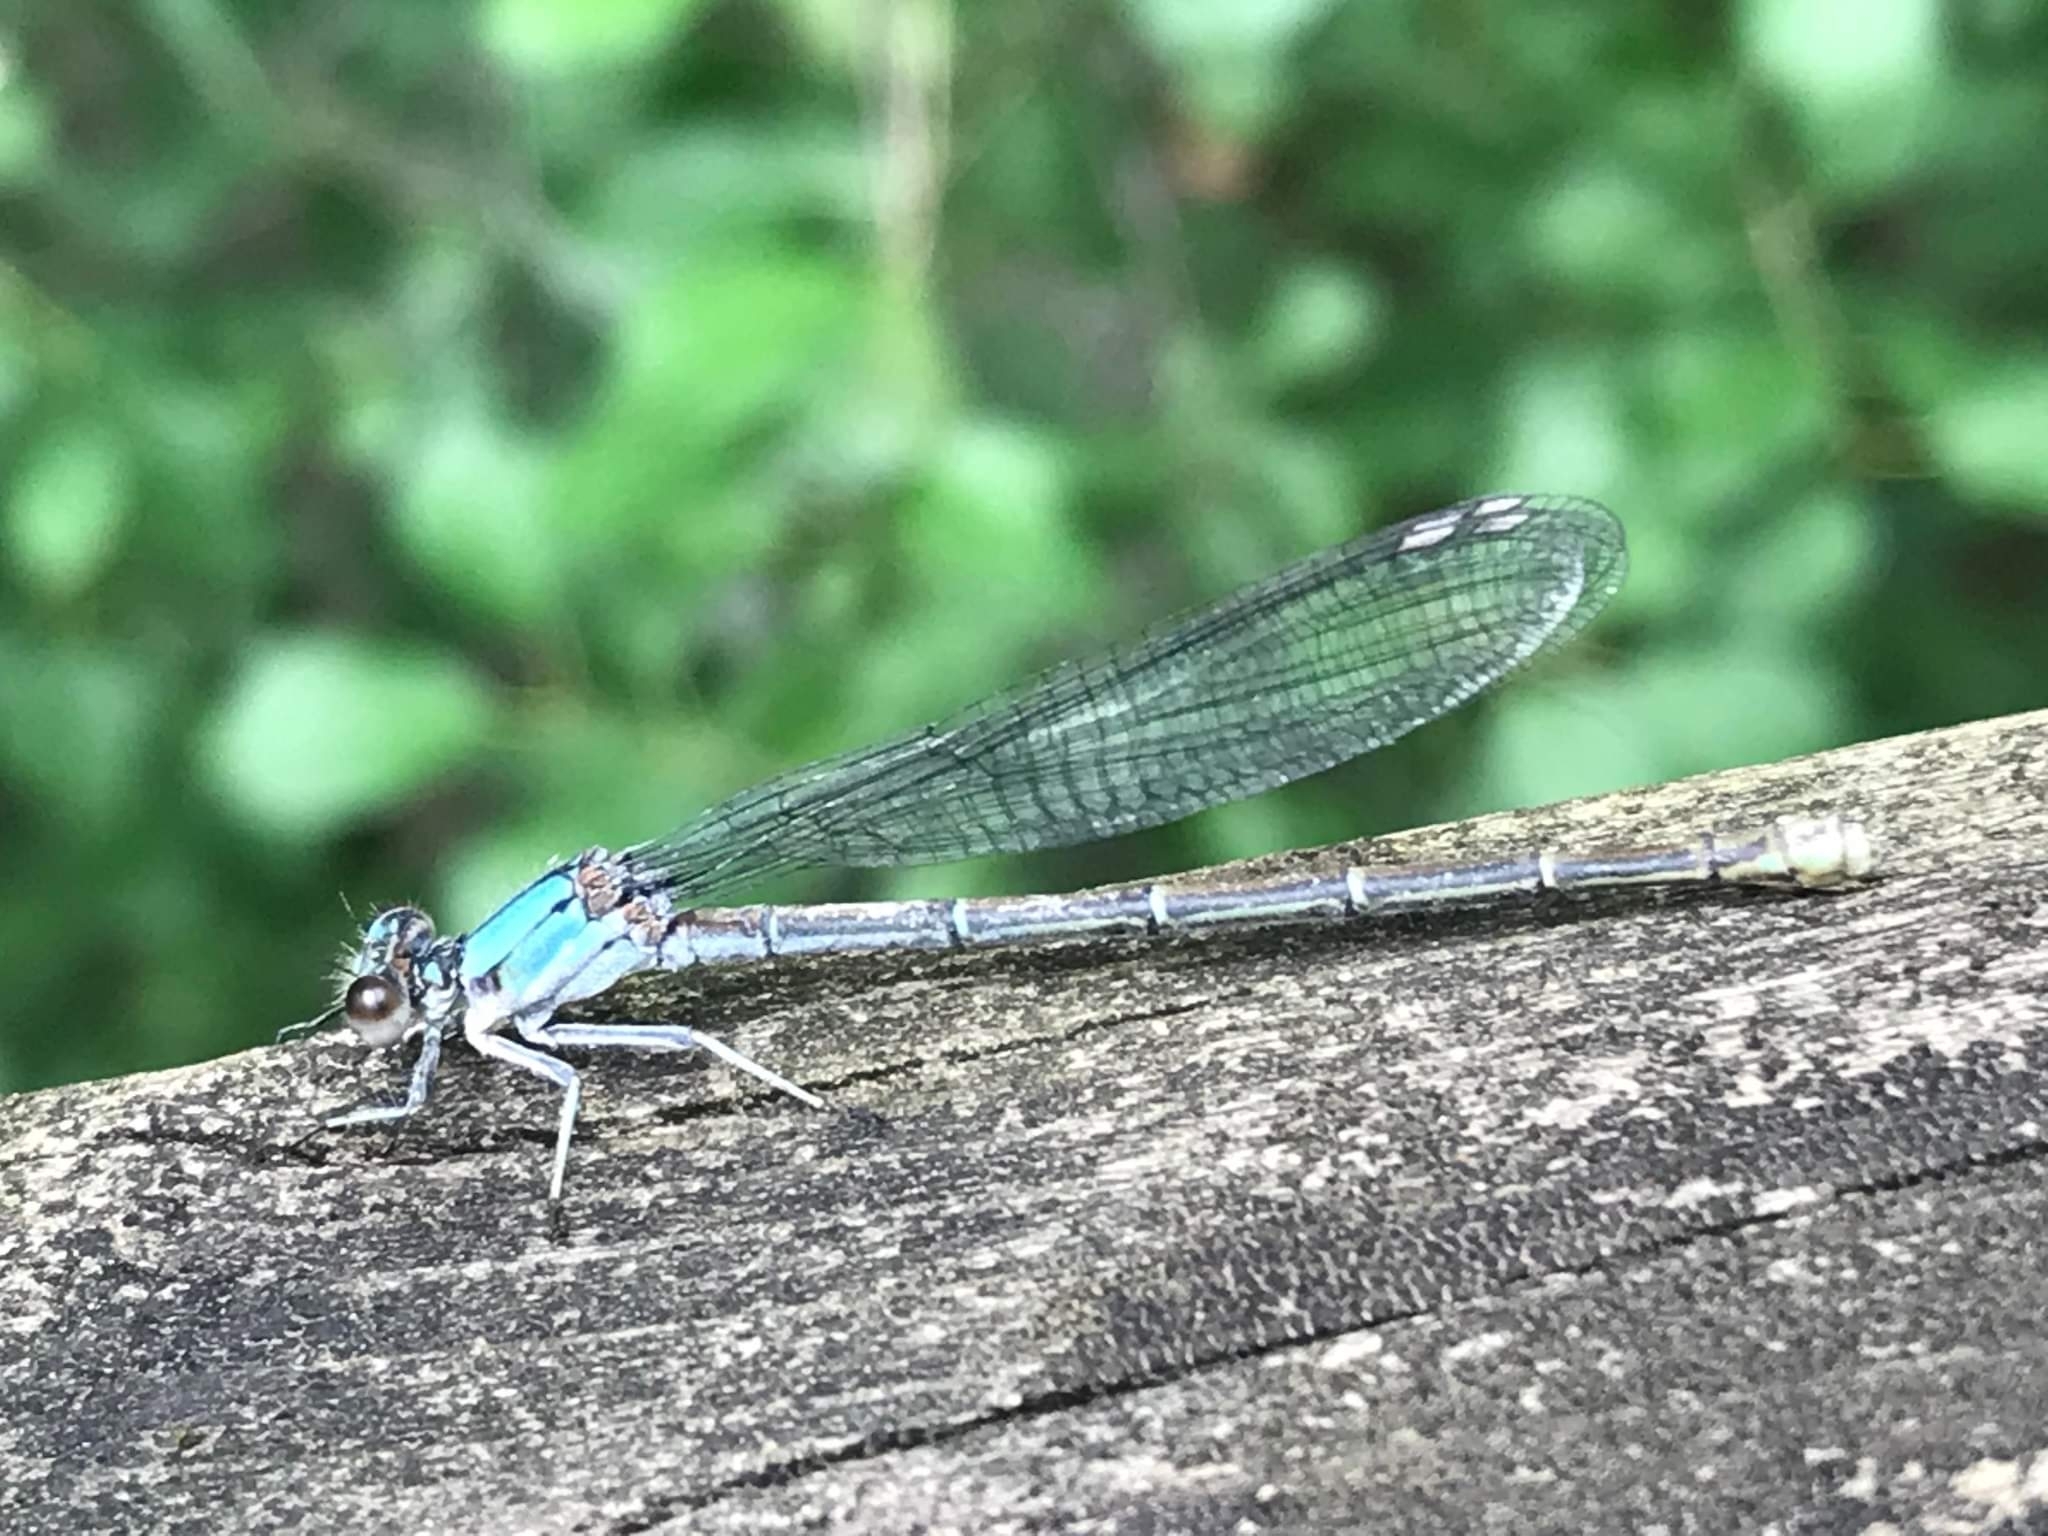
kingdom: Animalia
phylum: Arthropoda
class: Insecta
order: Odonata
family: Coenagrionidae
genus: Argia
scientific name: Argia moesta
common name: Powdered dancer
